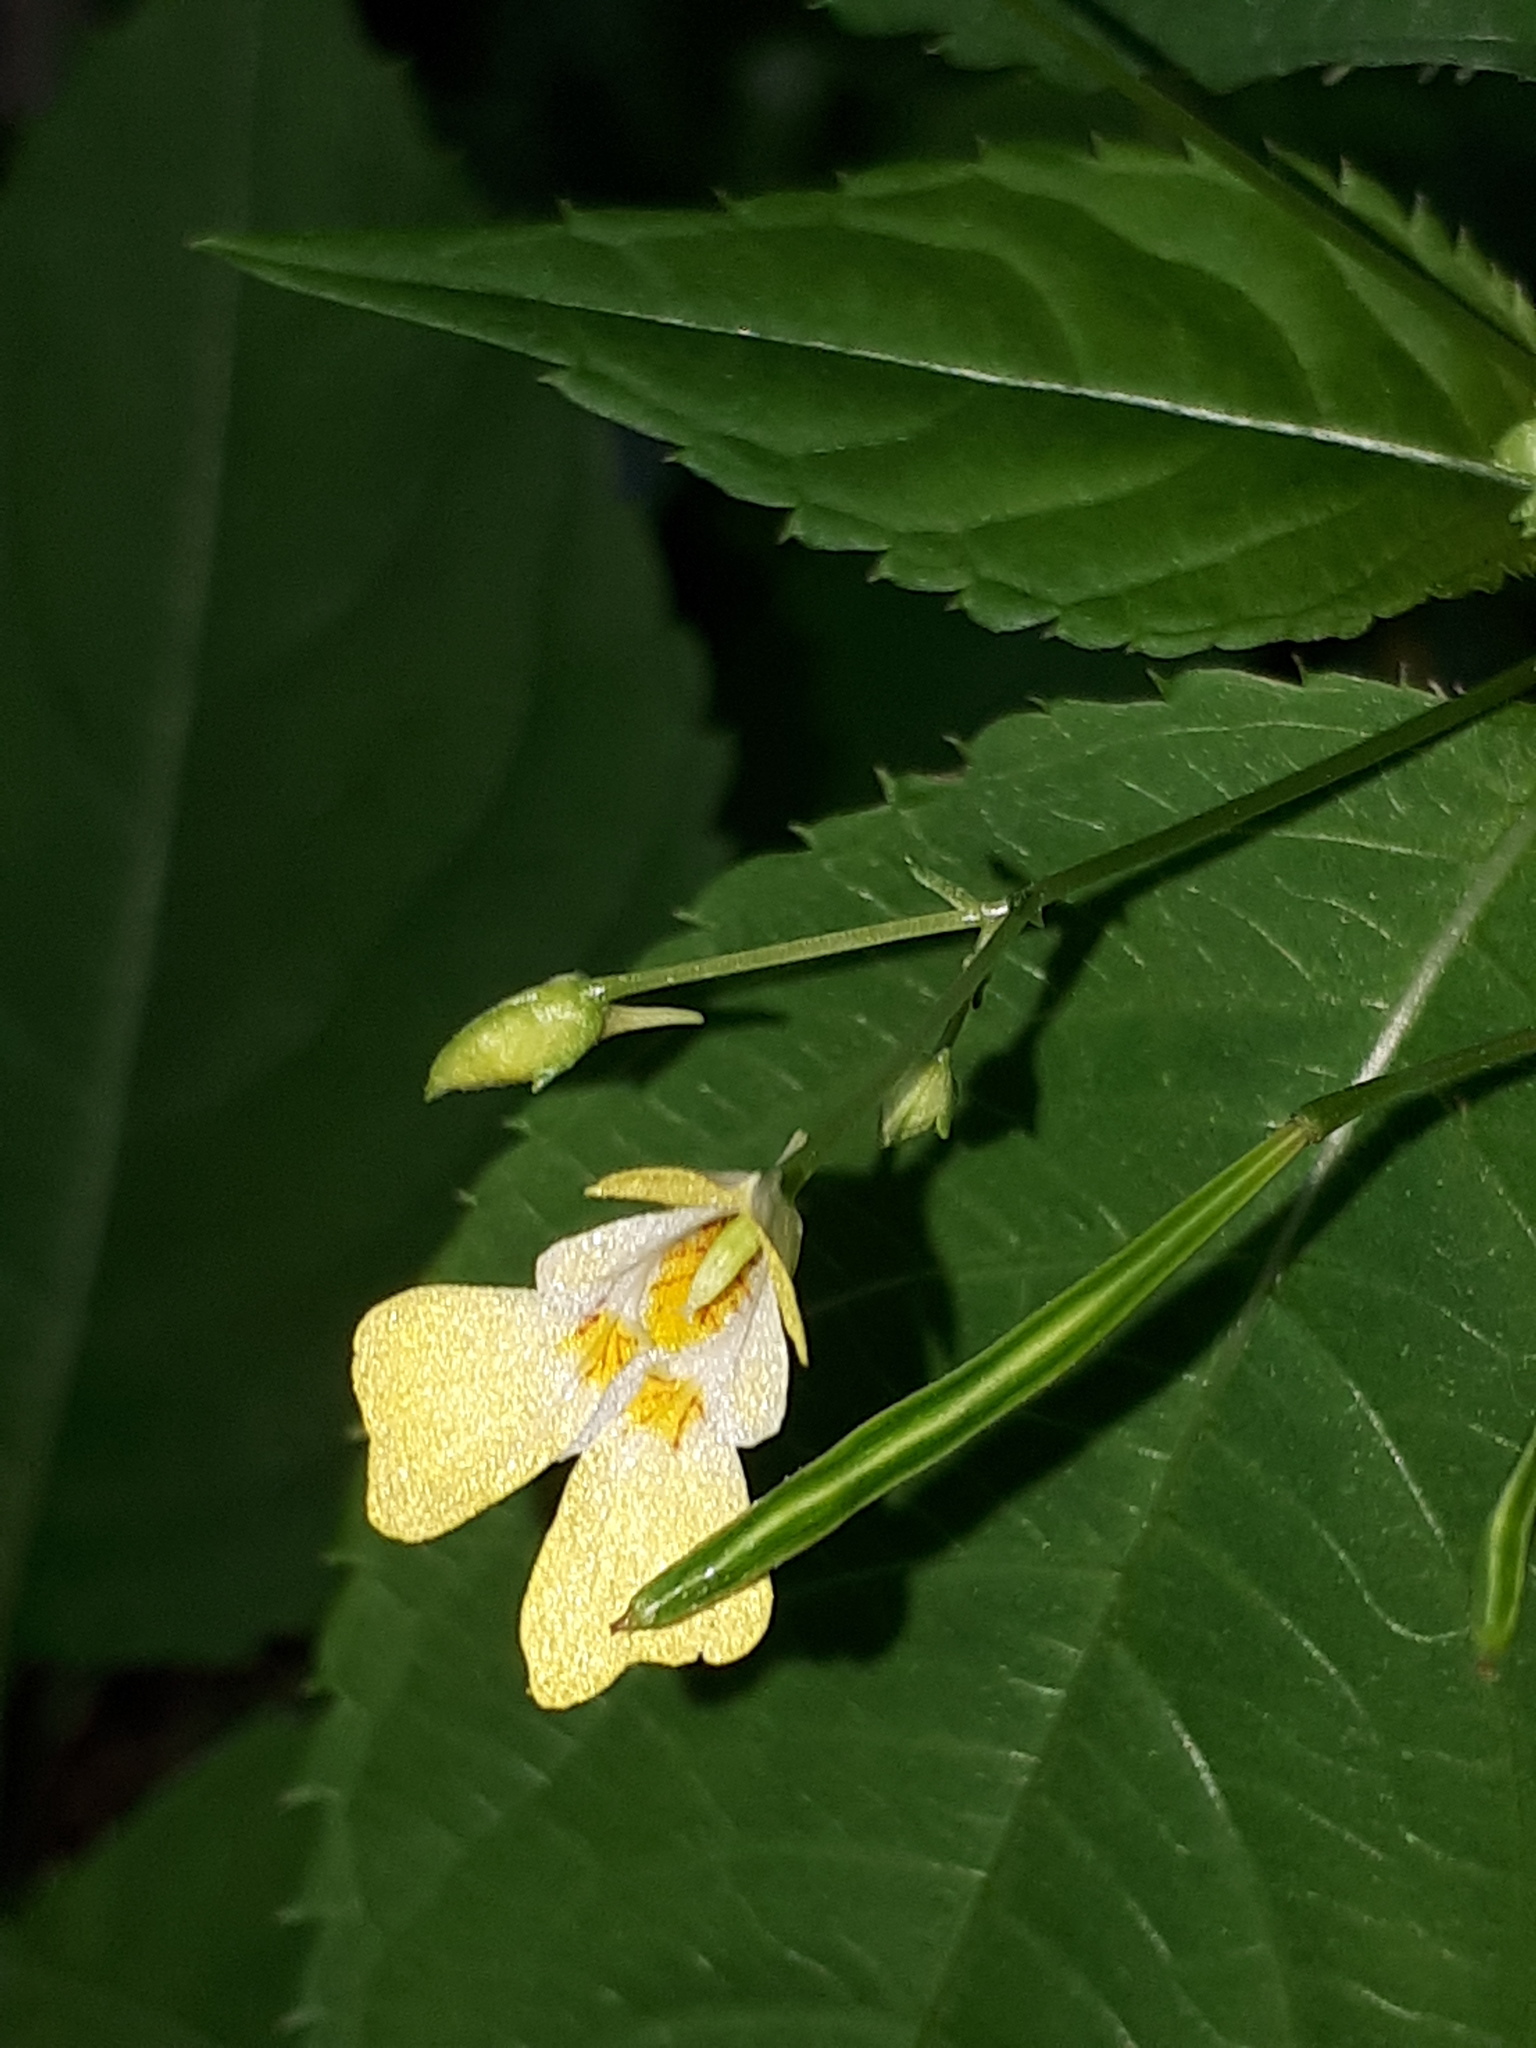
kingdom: Plantae
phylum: Tracheophyta
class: Magnoliopsida
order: Ericales
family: Balsaminaceae
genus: Impatiens
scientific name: Impatiens parviflora
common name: Small balsam
